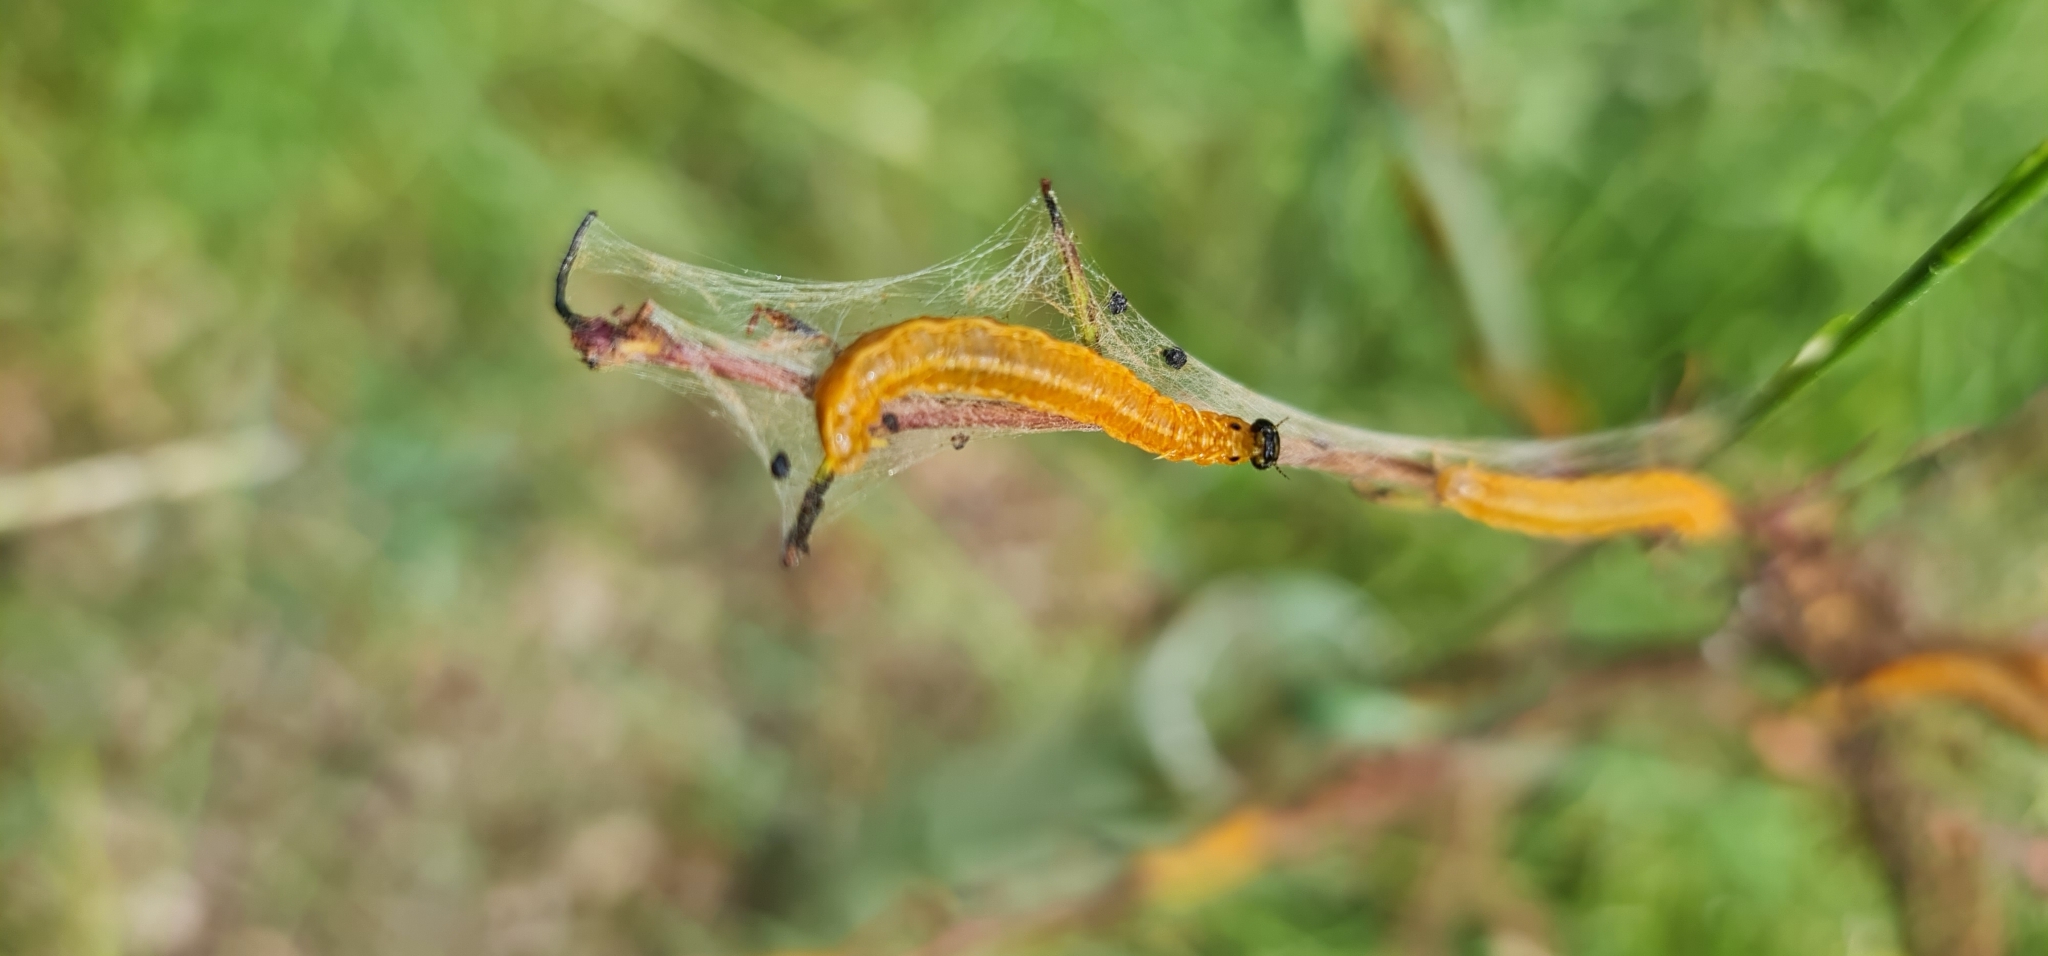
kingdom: Animalia
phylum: Arthropoda
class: Insecta
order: Hymenoptera
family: Pamphiliidae
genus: Neurotoma
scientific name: Neurotoma saltuum
